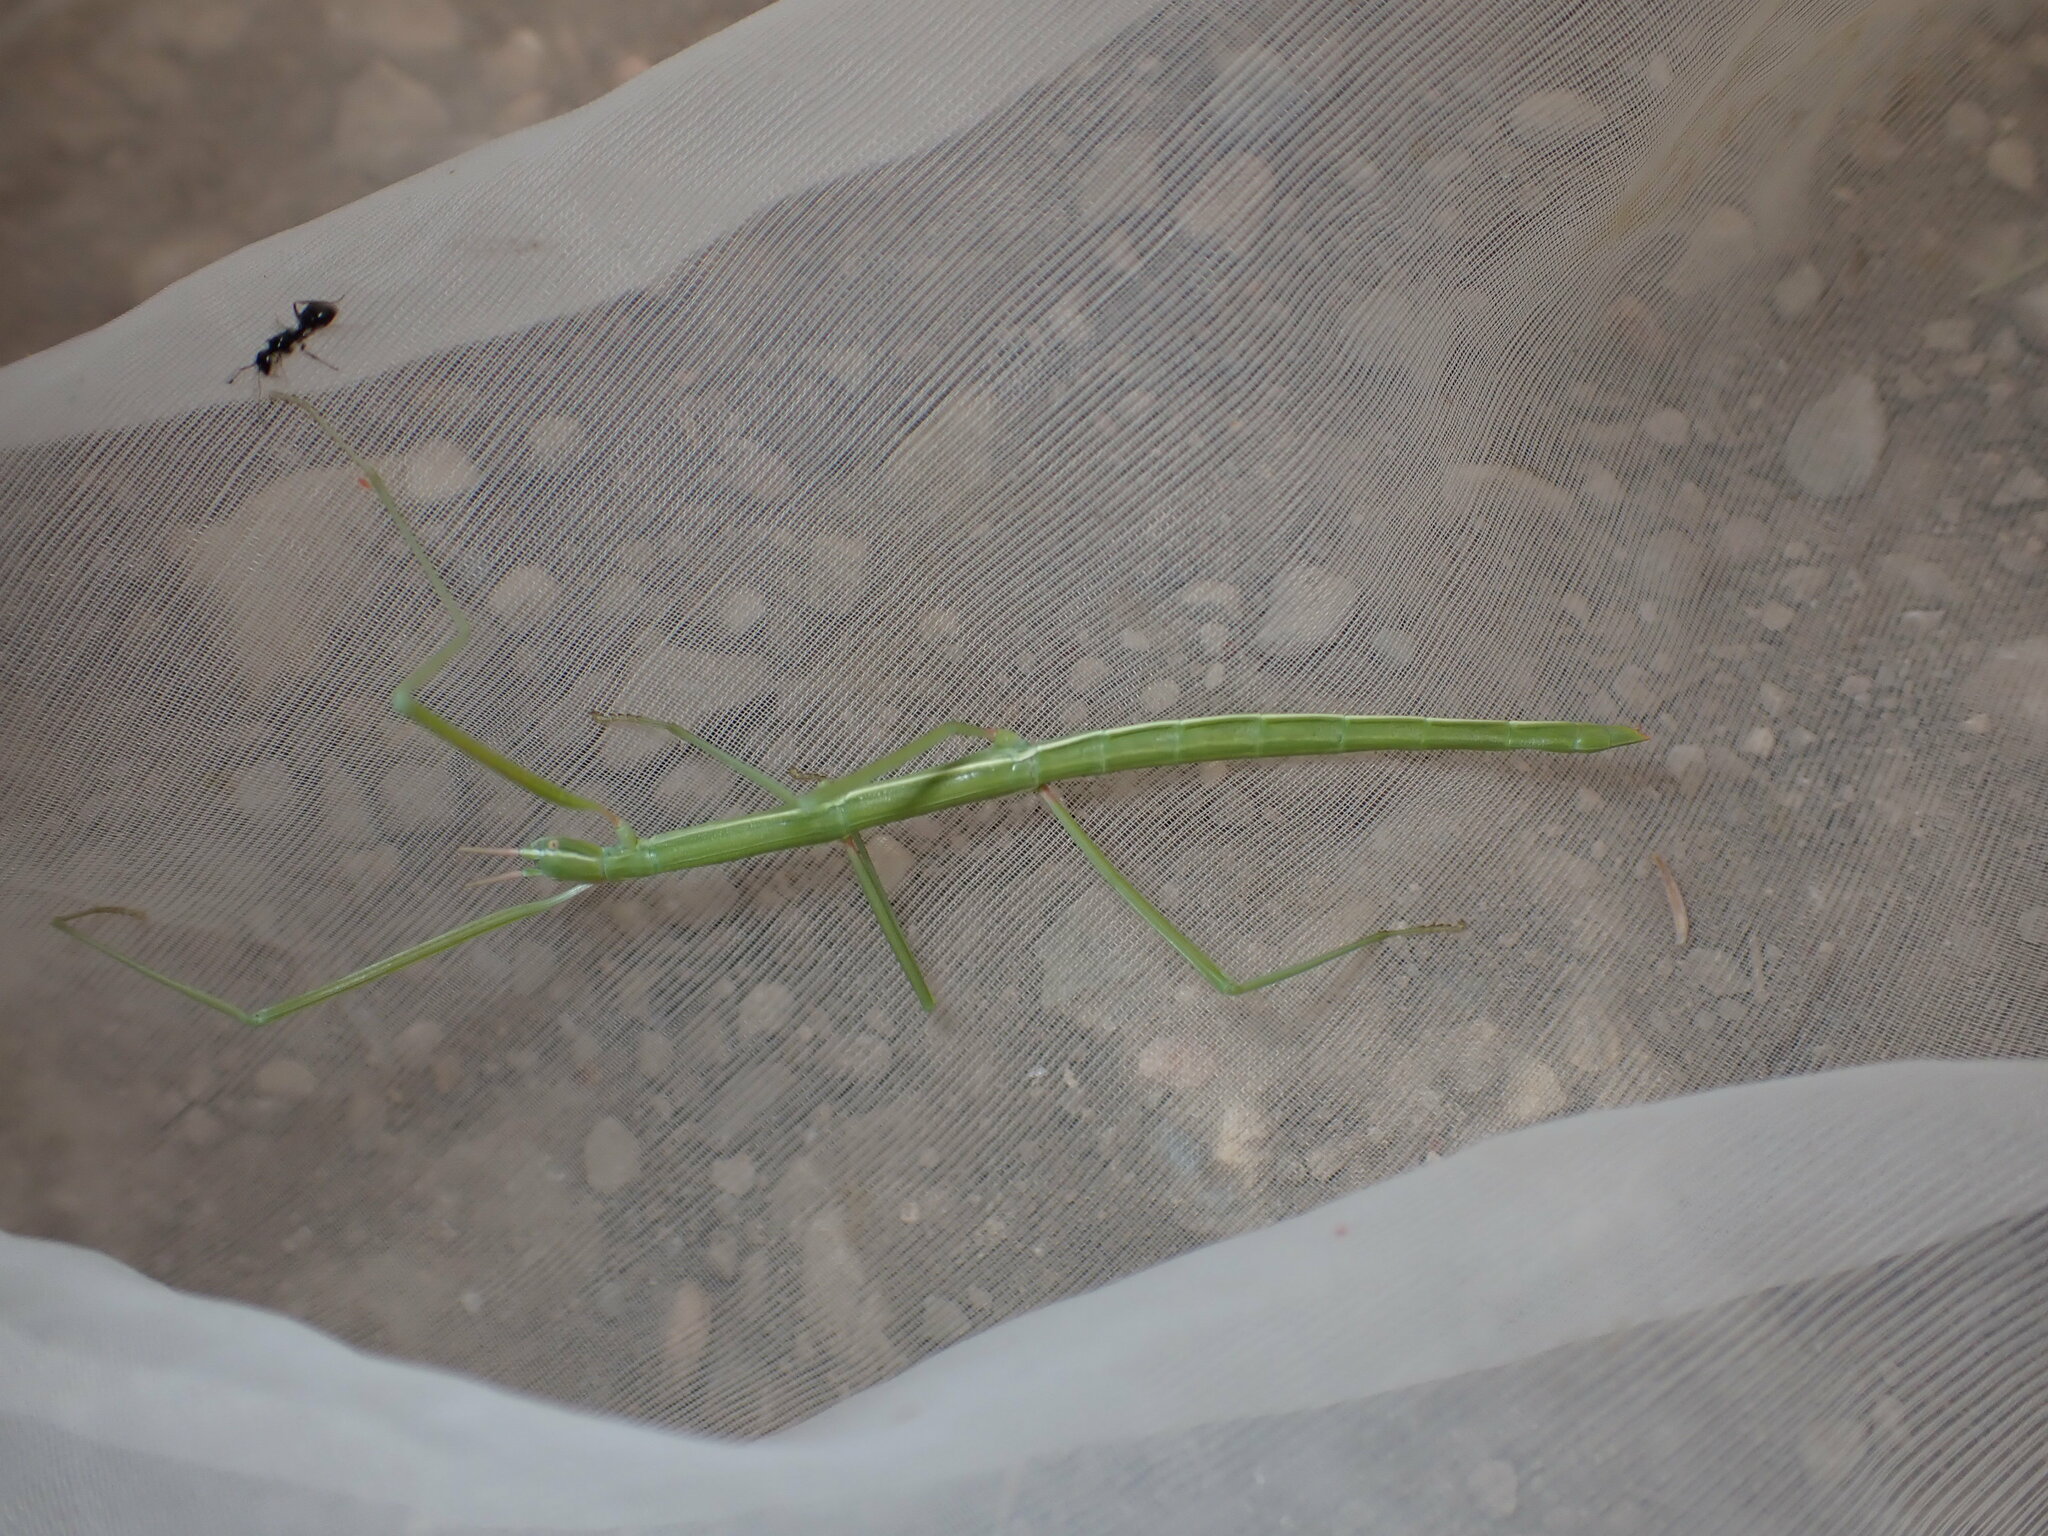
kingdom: Animalia
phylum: Arthropoda
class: Insecta
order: Phasmida
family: Bacillidae
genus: Pijnackeria
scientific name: Pijnackeria masettii
